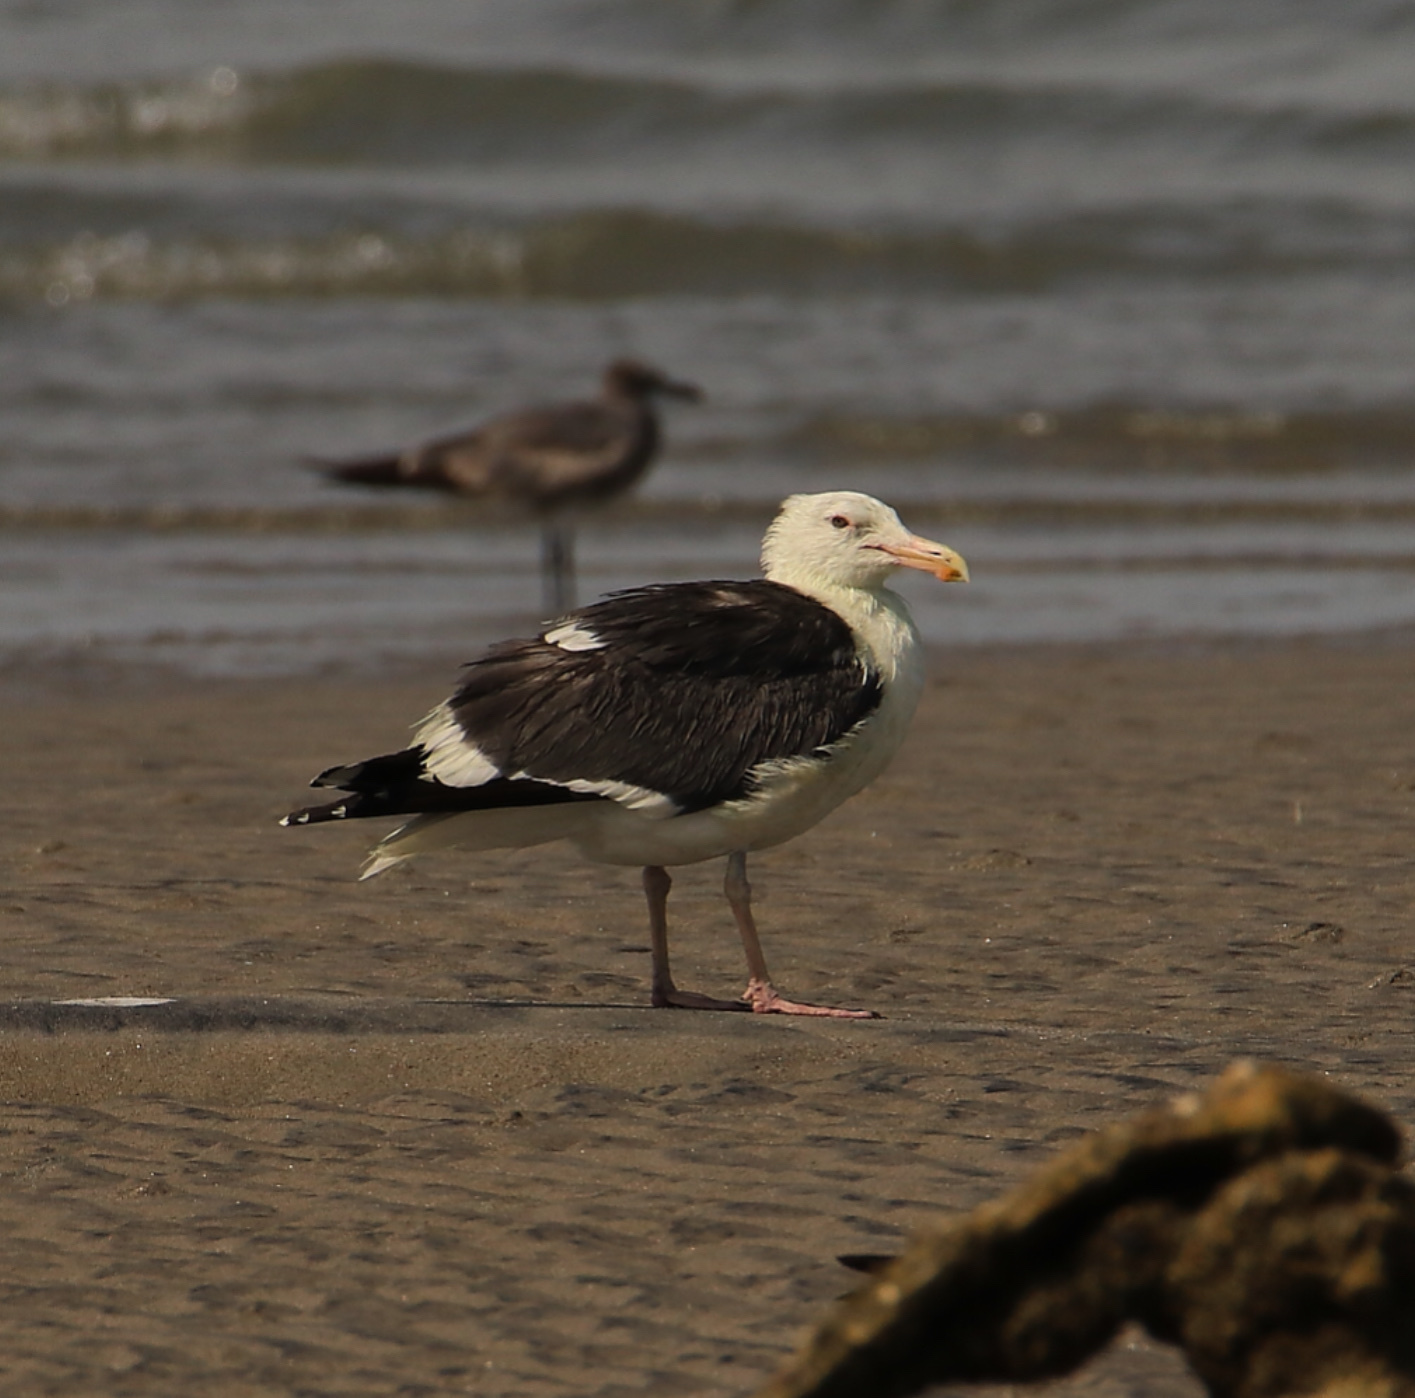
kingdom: Animalia
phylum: Chordata
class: Aves
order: Charadriiformes
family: Laridae
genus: Larus
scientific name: Larus occidentalis
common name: Western gull
